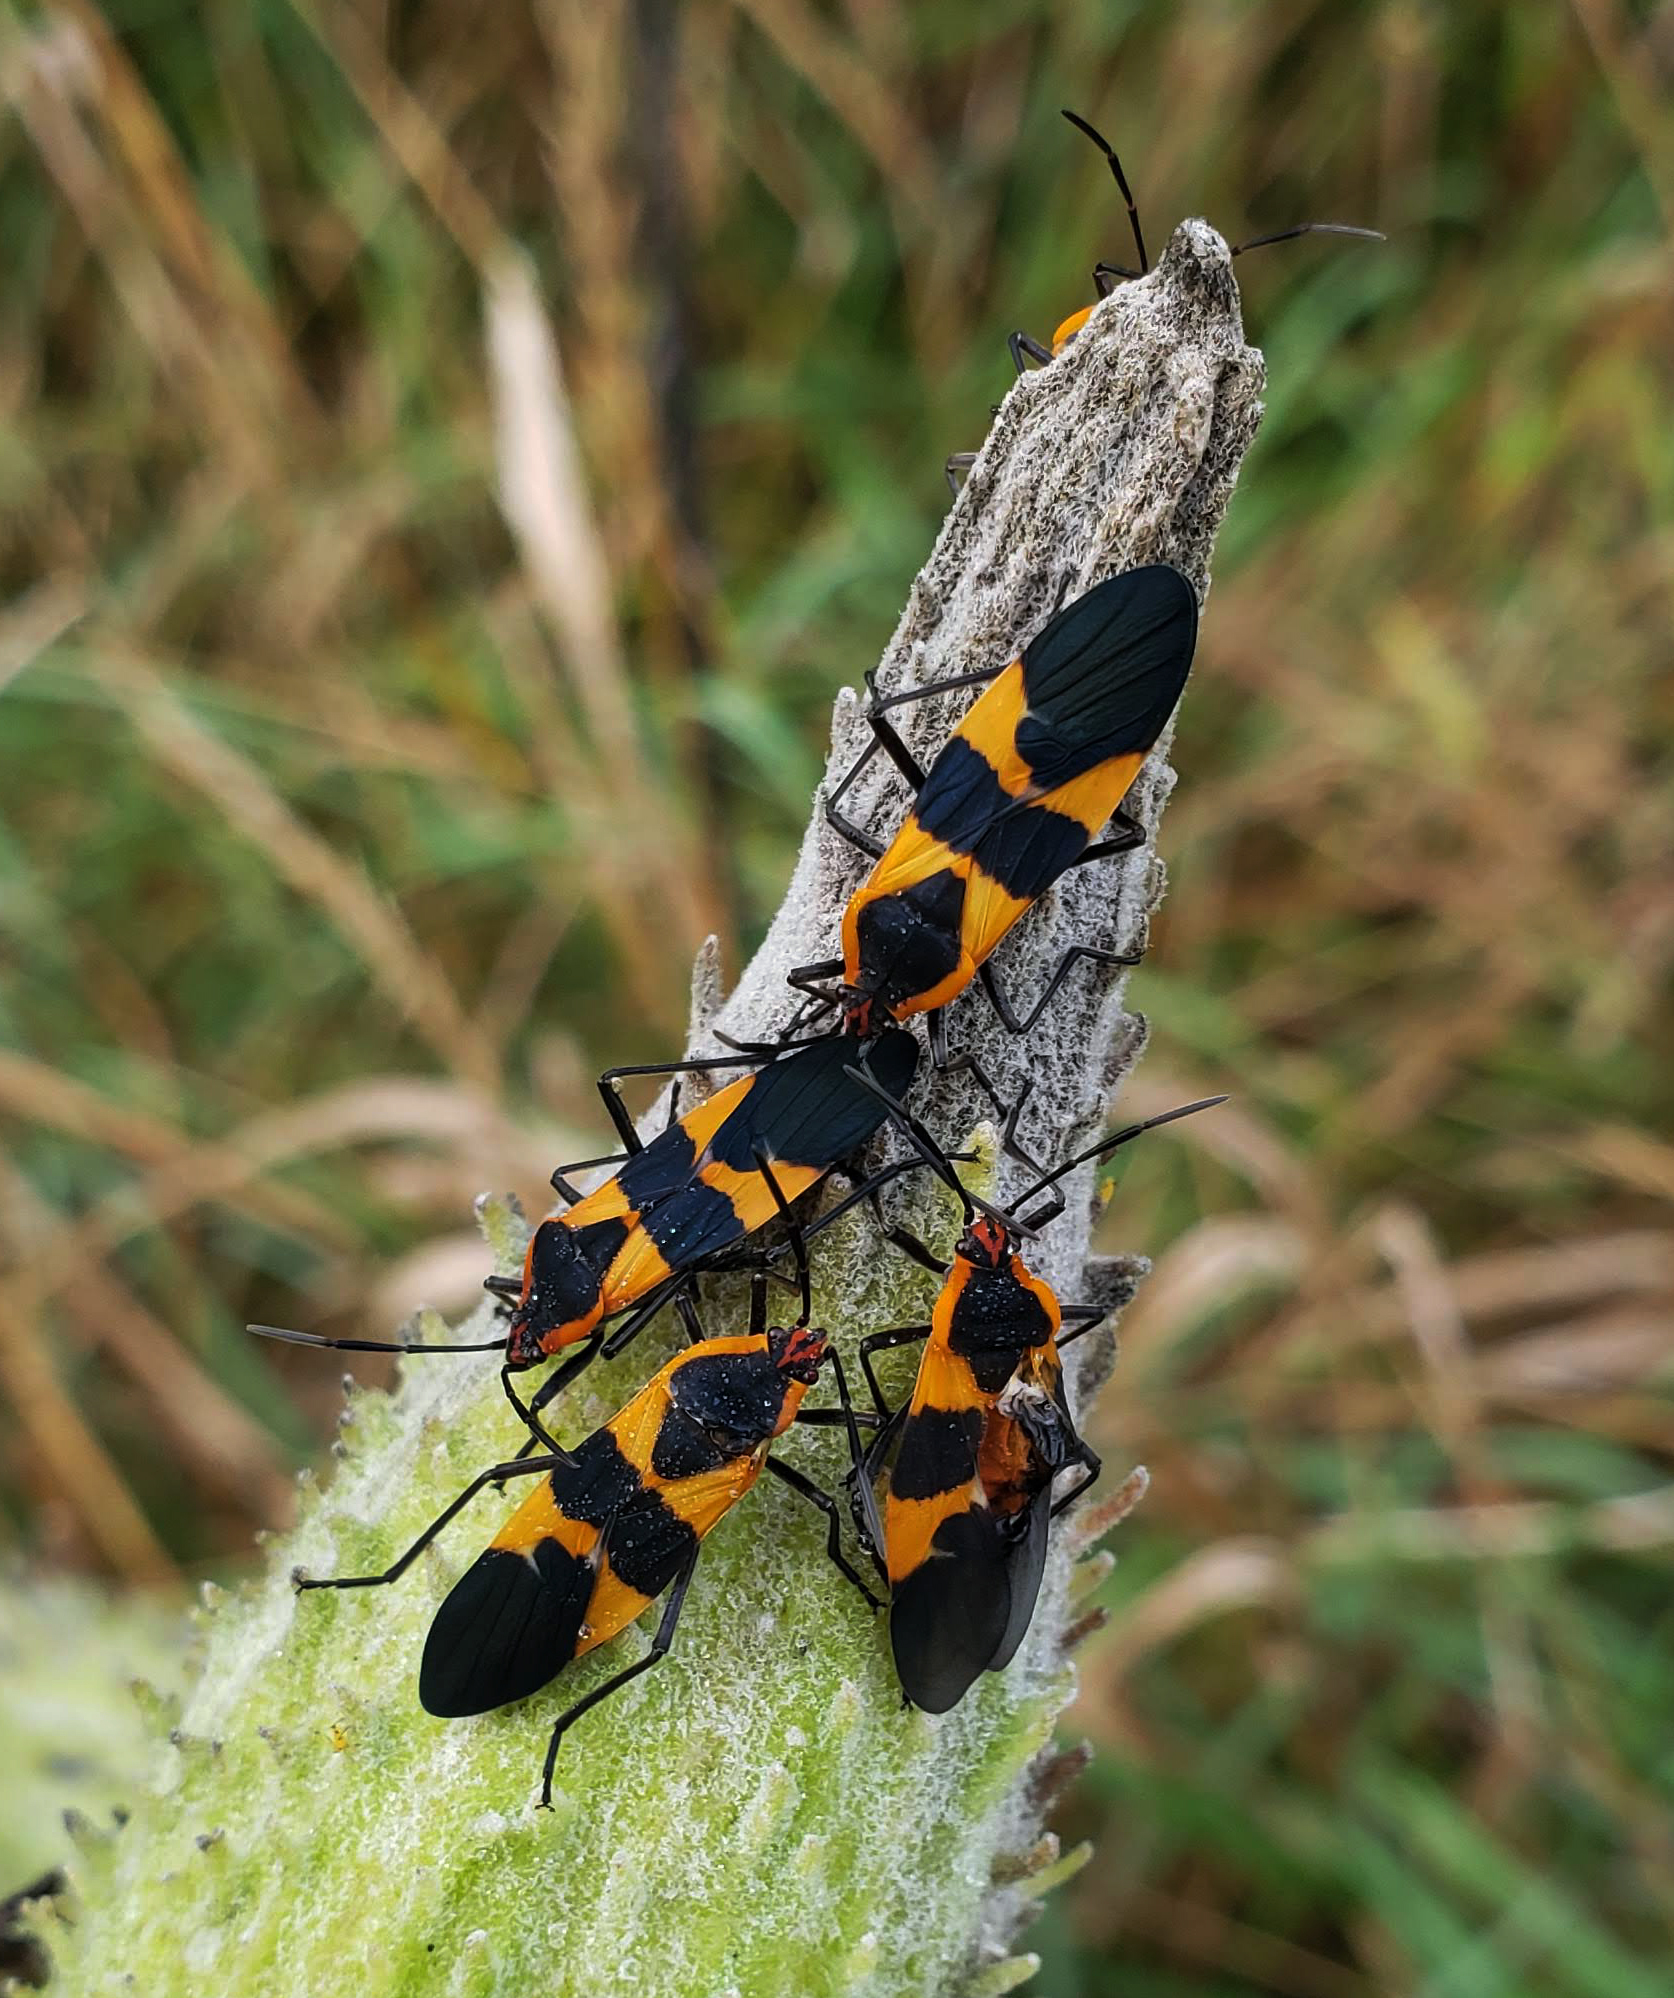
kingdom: Animalia
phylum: Arthropoda
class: Insecta
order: Hemiptera
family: Lygaeidae
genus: Oncopeltus
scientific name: Oncopeltus fasciatus
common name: Large milkweed bug
